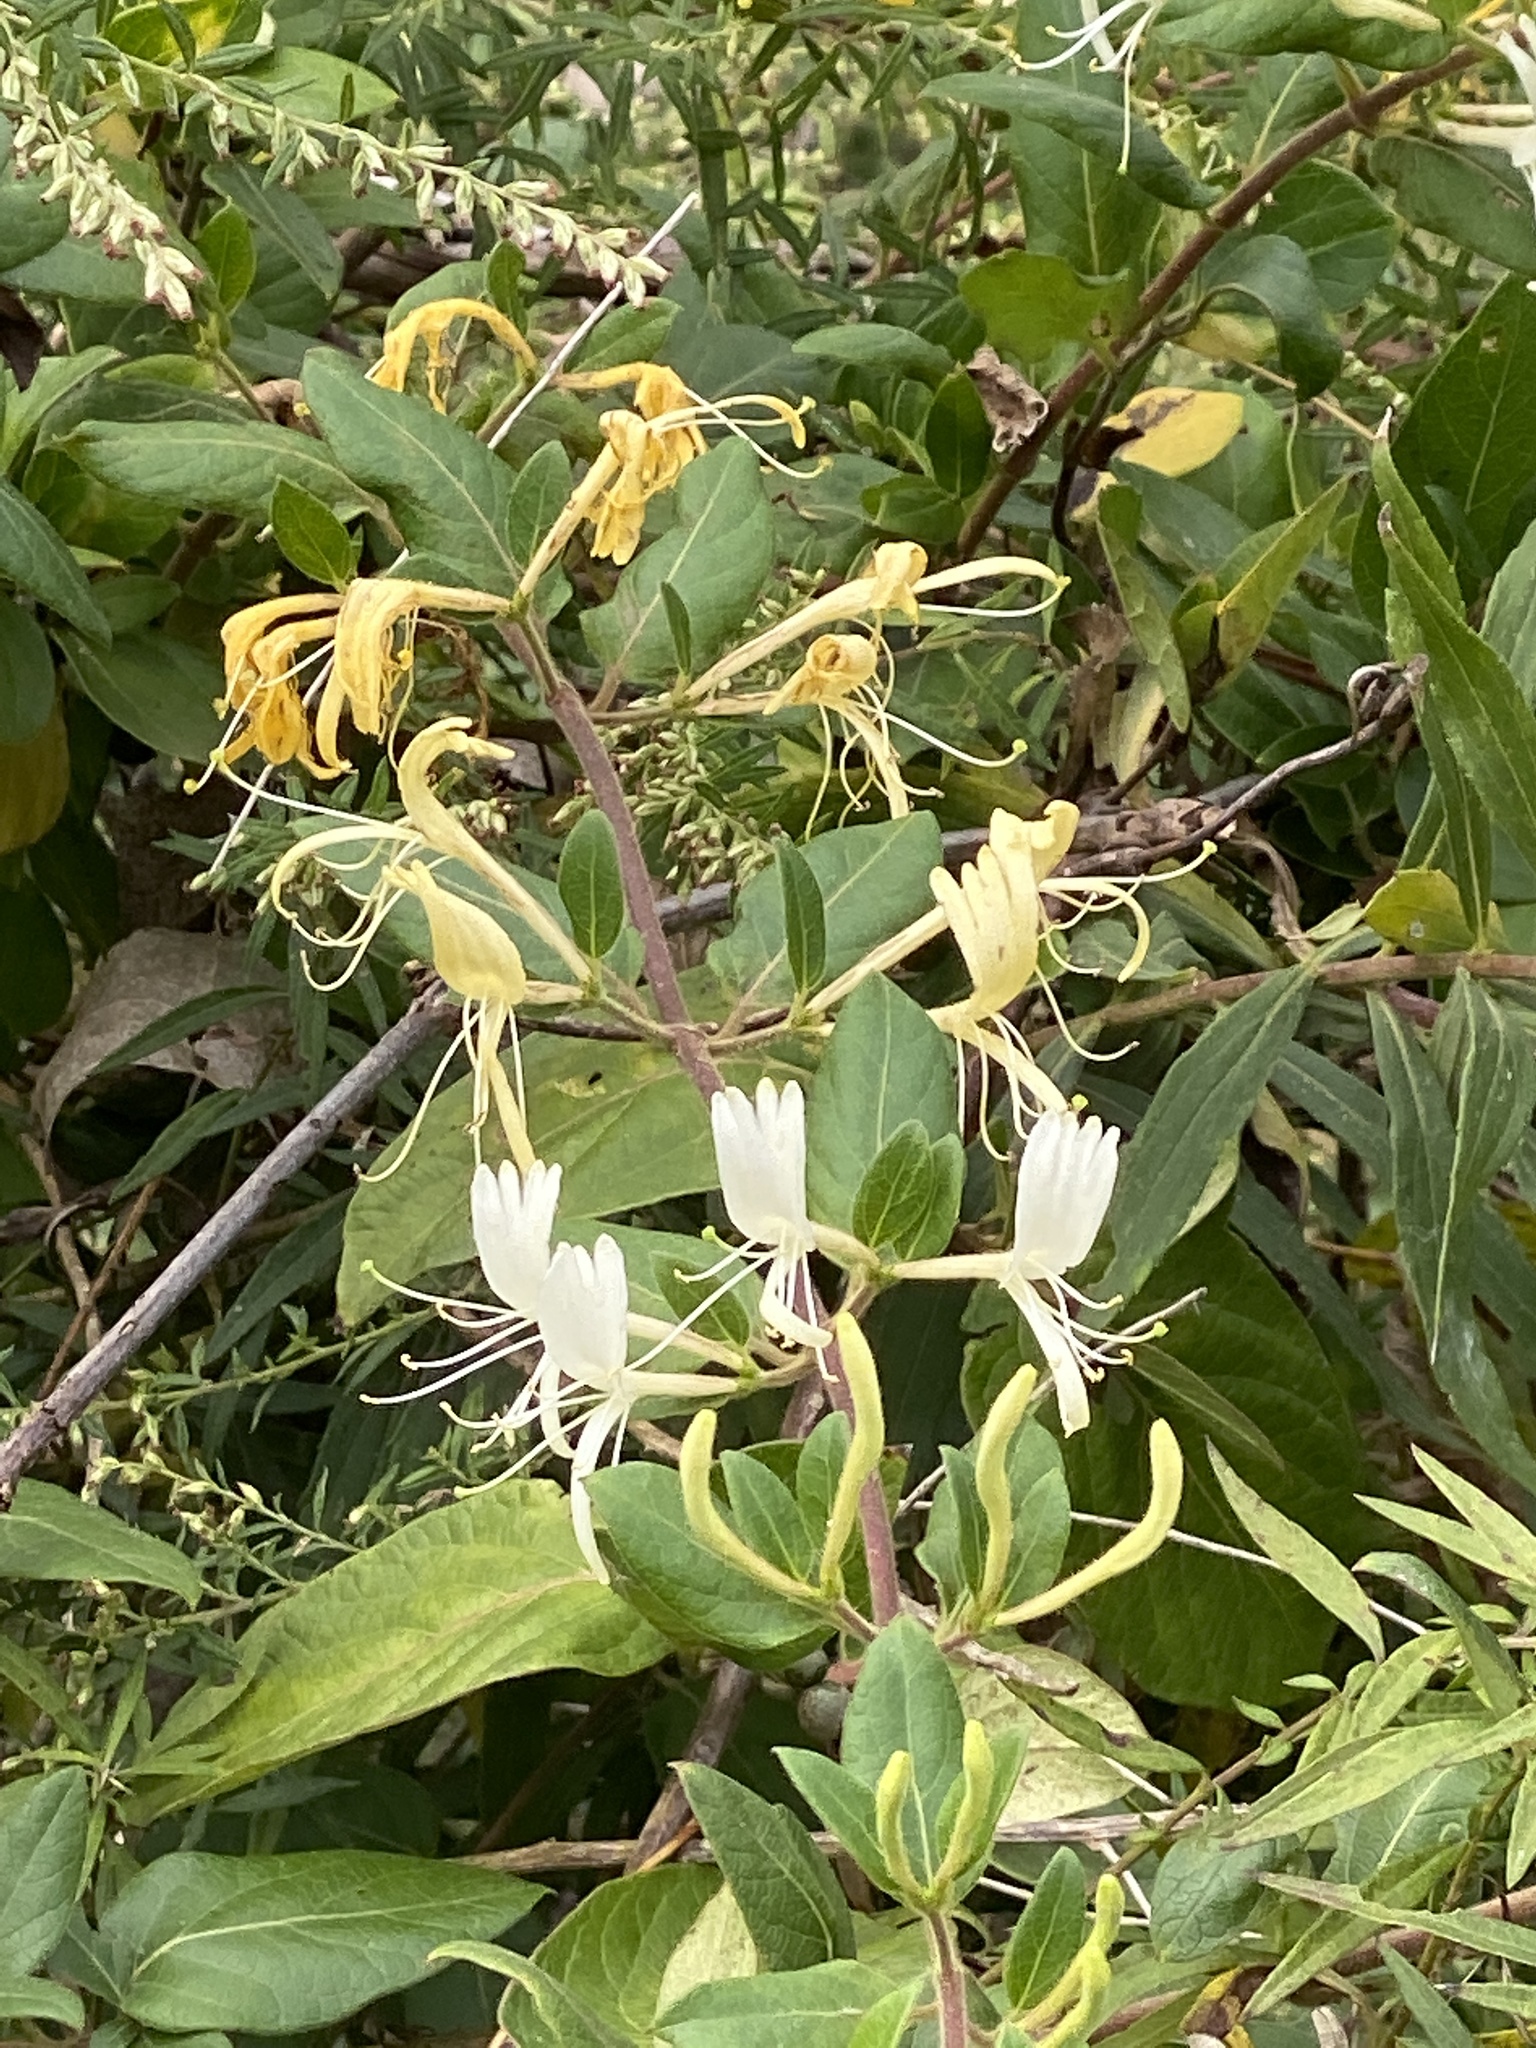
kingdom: Plantae
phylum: Tracheophyta
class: Magnoliopsida
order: Dipsacales
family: Caprifoliaceae
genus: Lonicera
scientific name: Lonicera japonica
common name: Japanese honeysuckle
